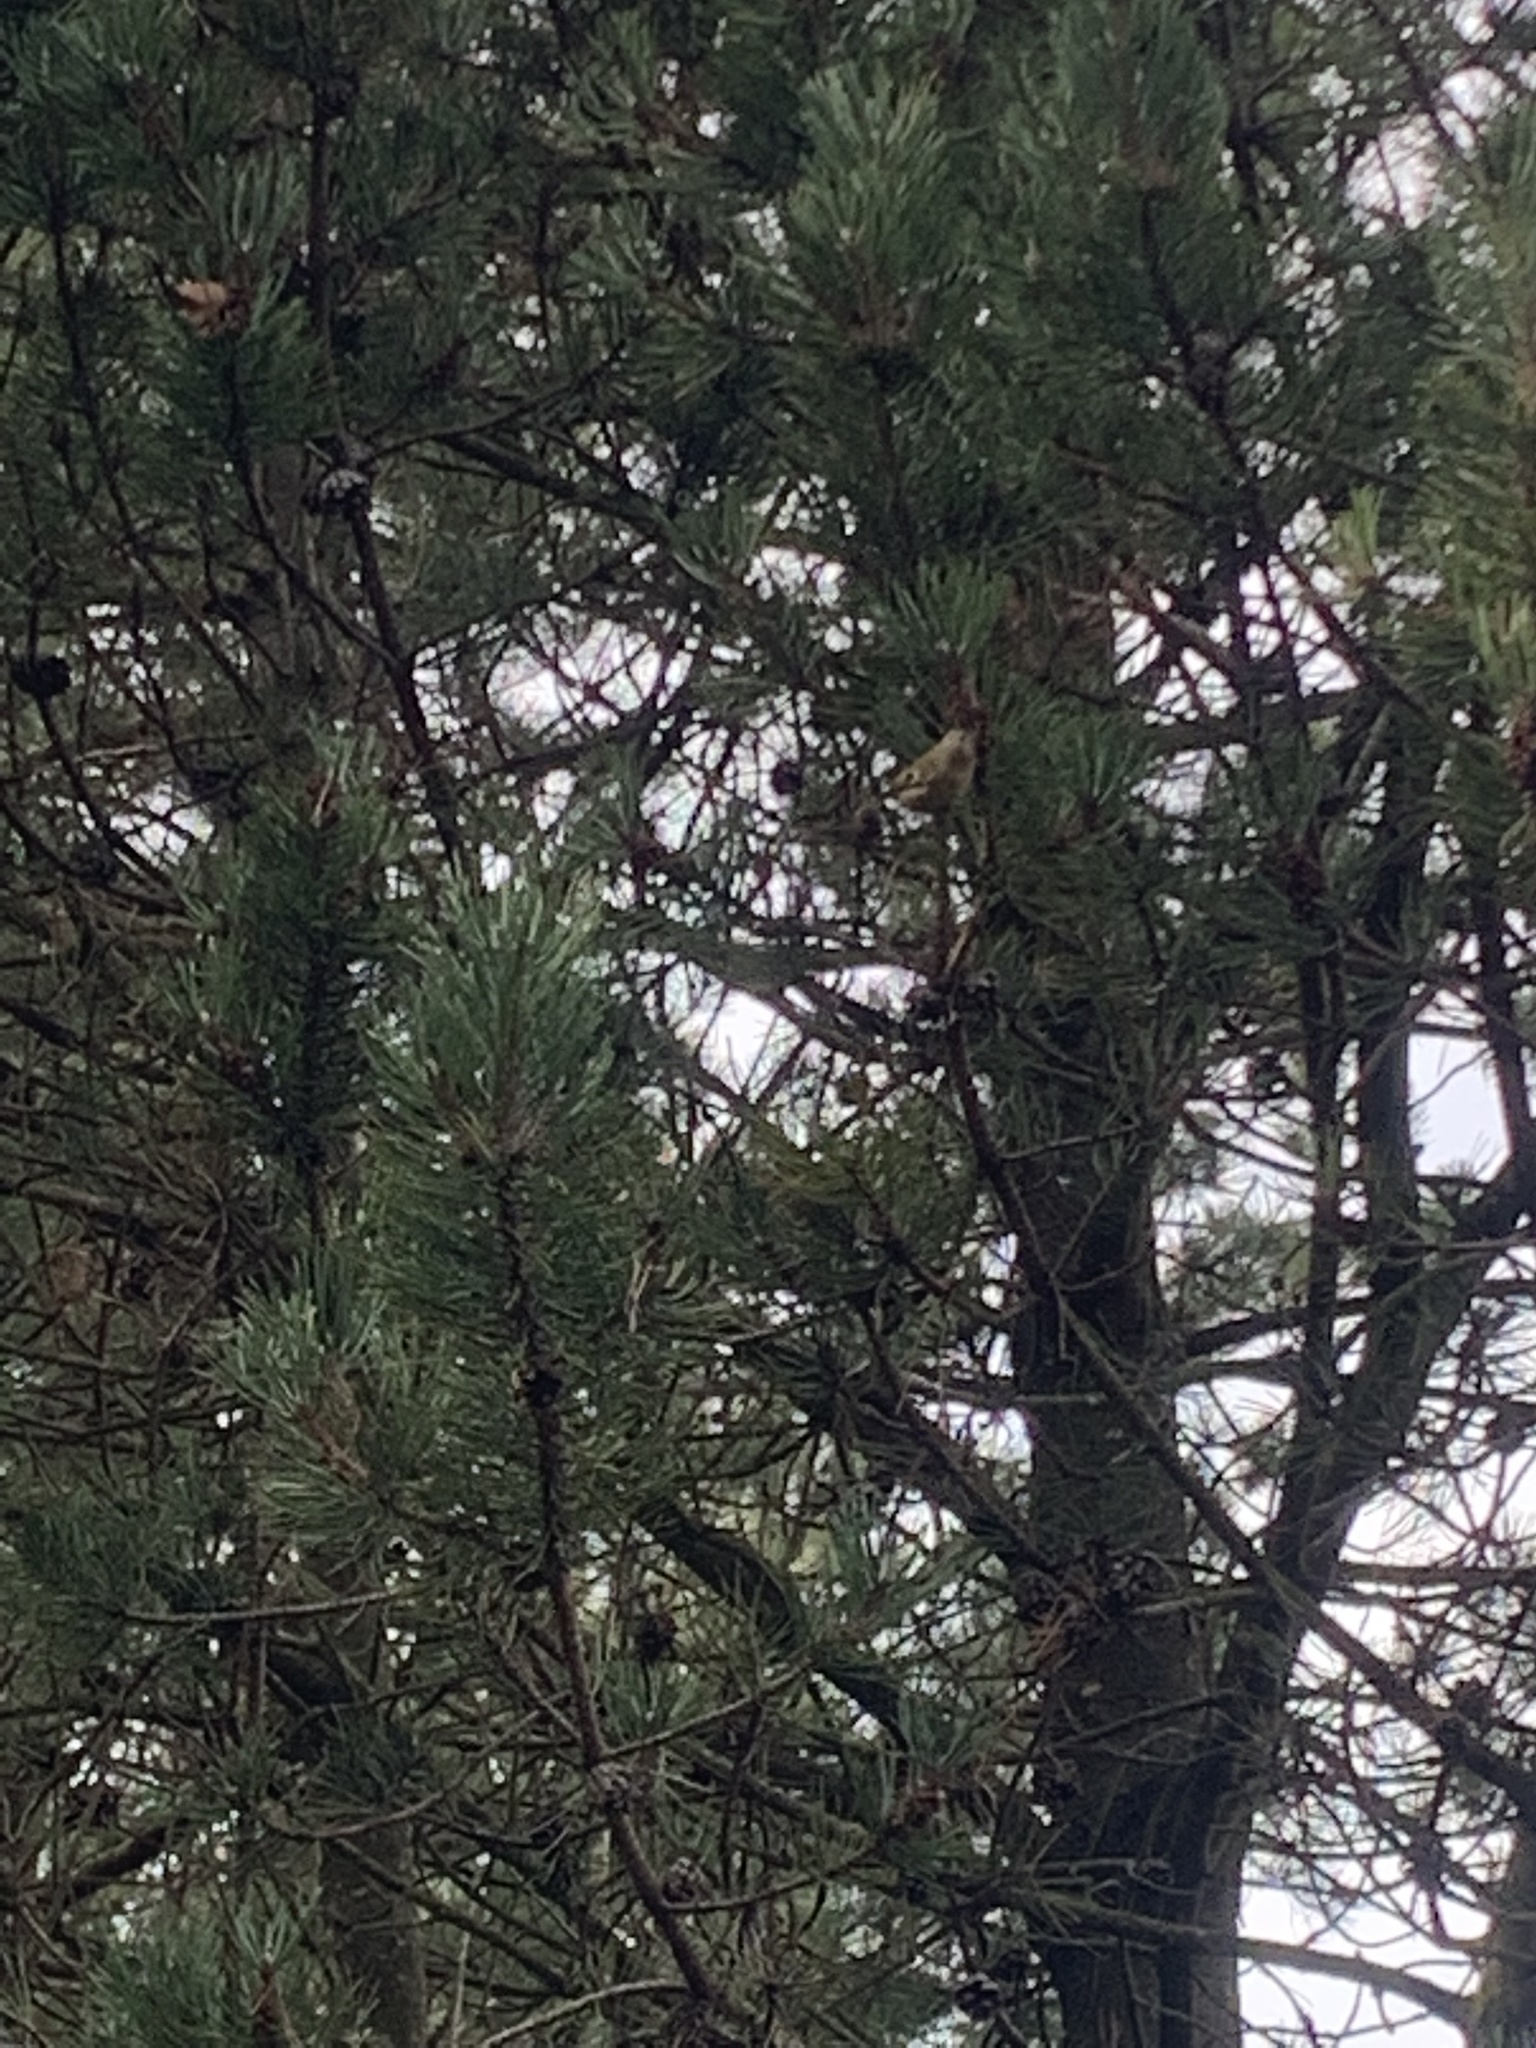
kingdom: Animalia
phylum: Chordata
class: Aves
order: Passeriformes
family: Regulidae
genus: Regulus
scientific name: Regulus regulus
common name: Goldcrest
